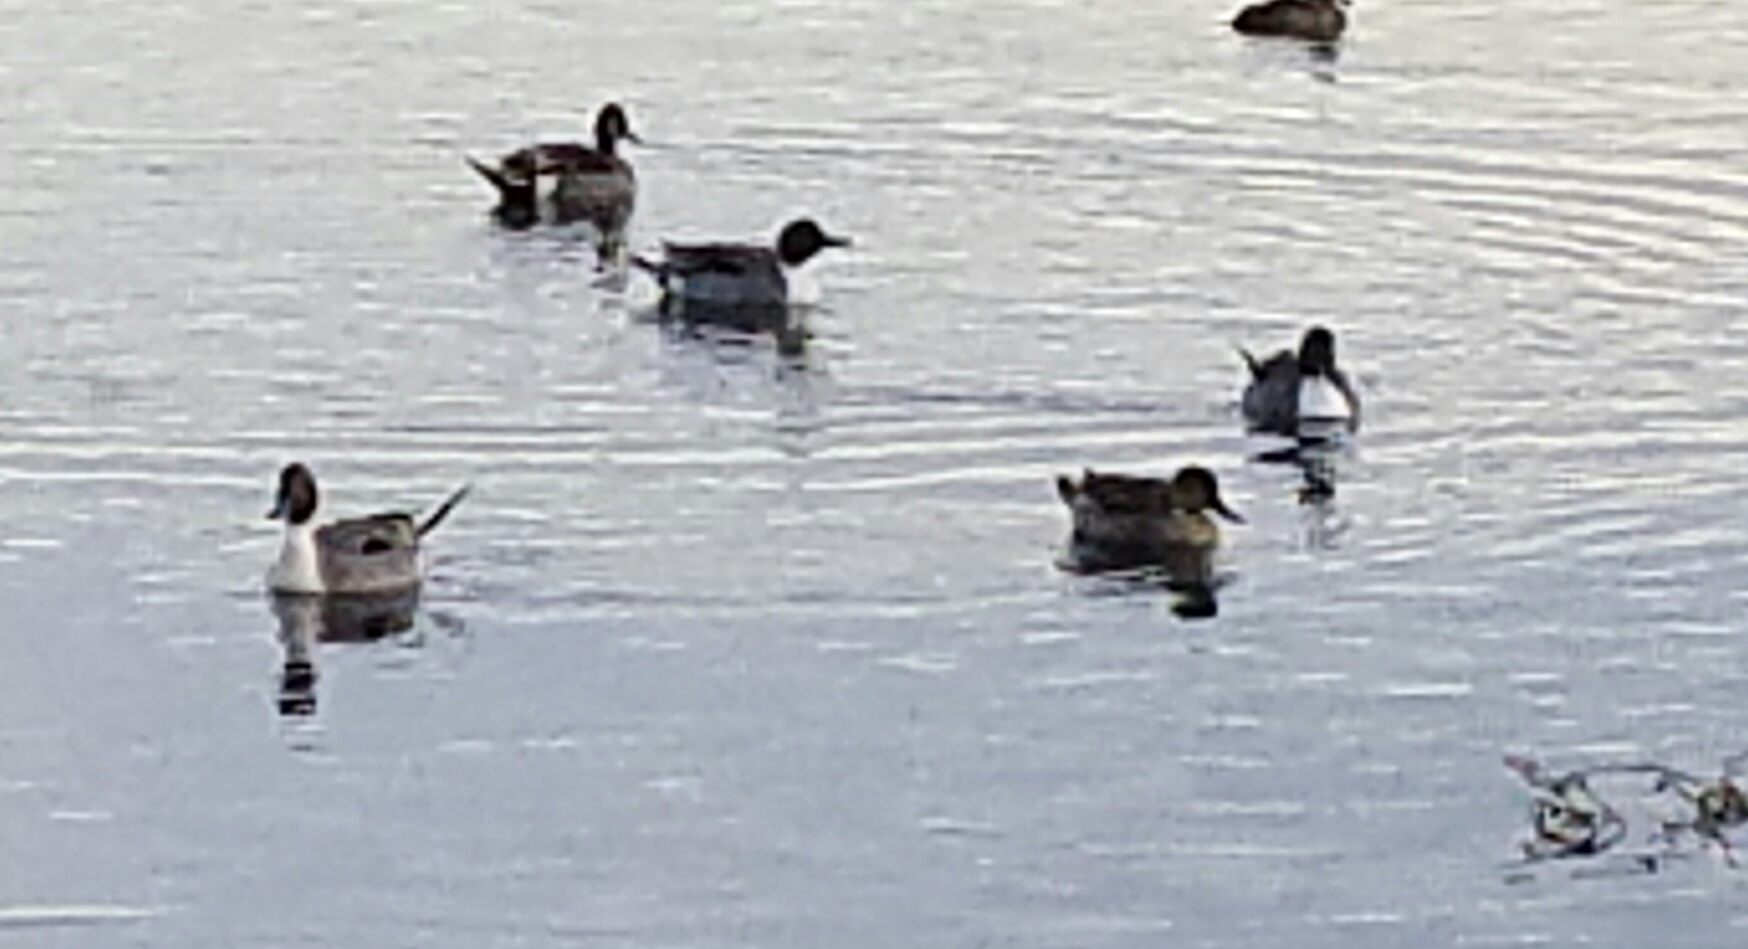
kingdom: Animalia
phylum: Chordata
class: Aves
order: Anseriformes
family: Anatidae
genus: Anas
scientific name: Anas acuta
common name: Northern pintail
